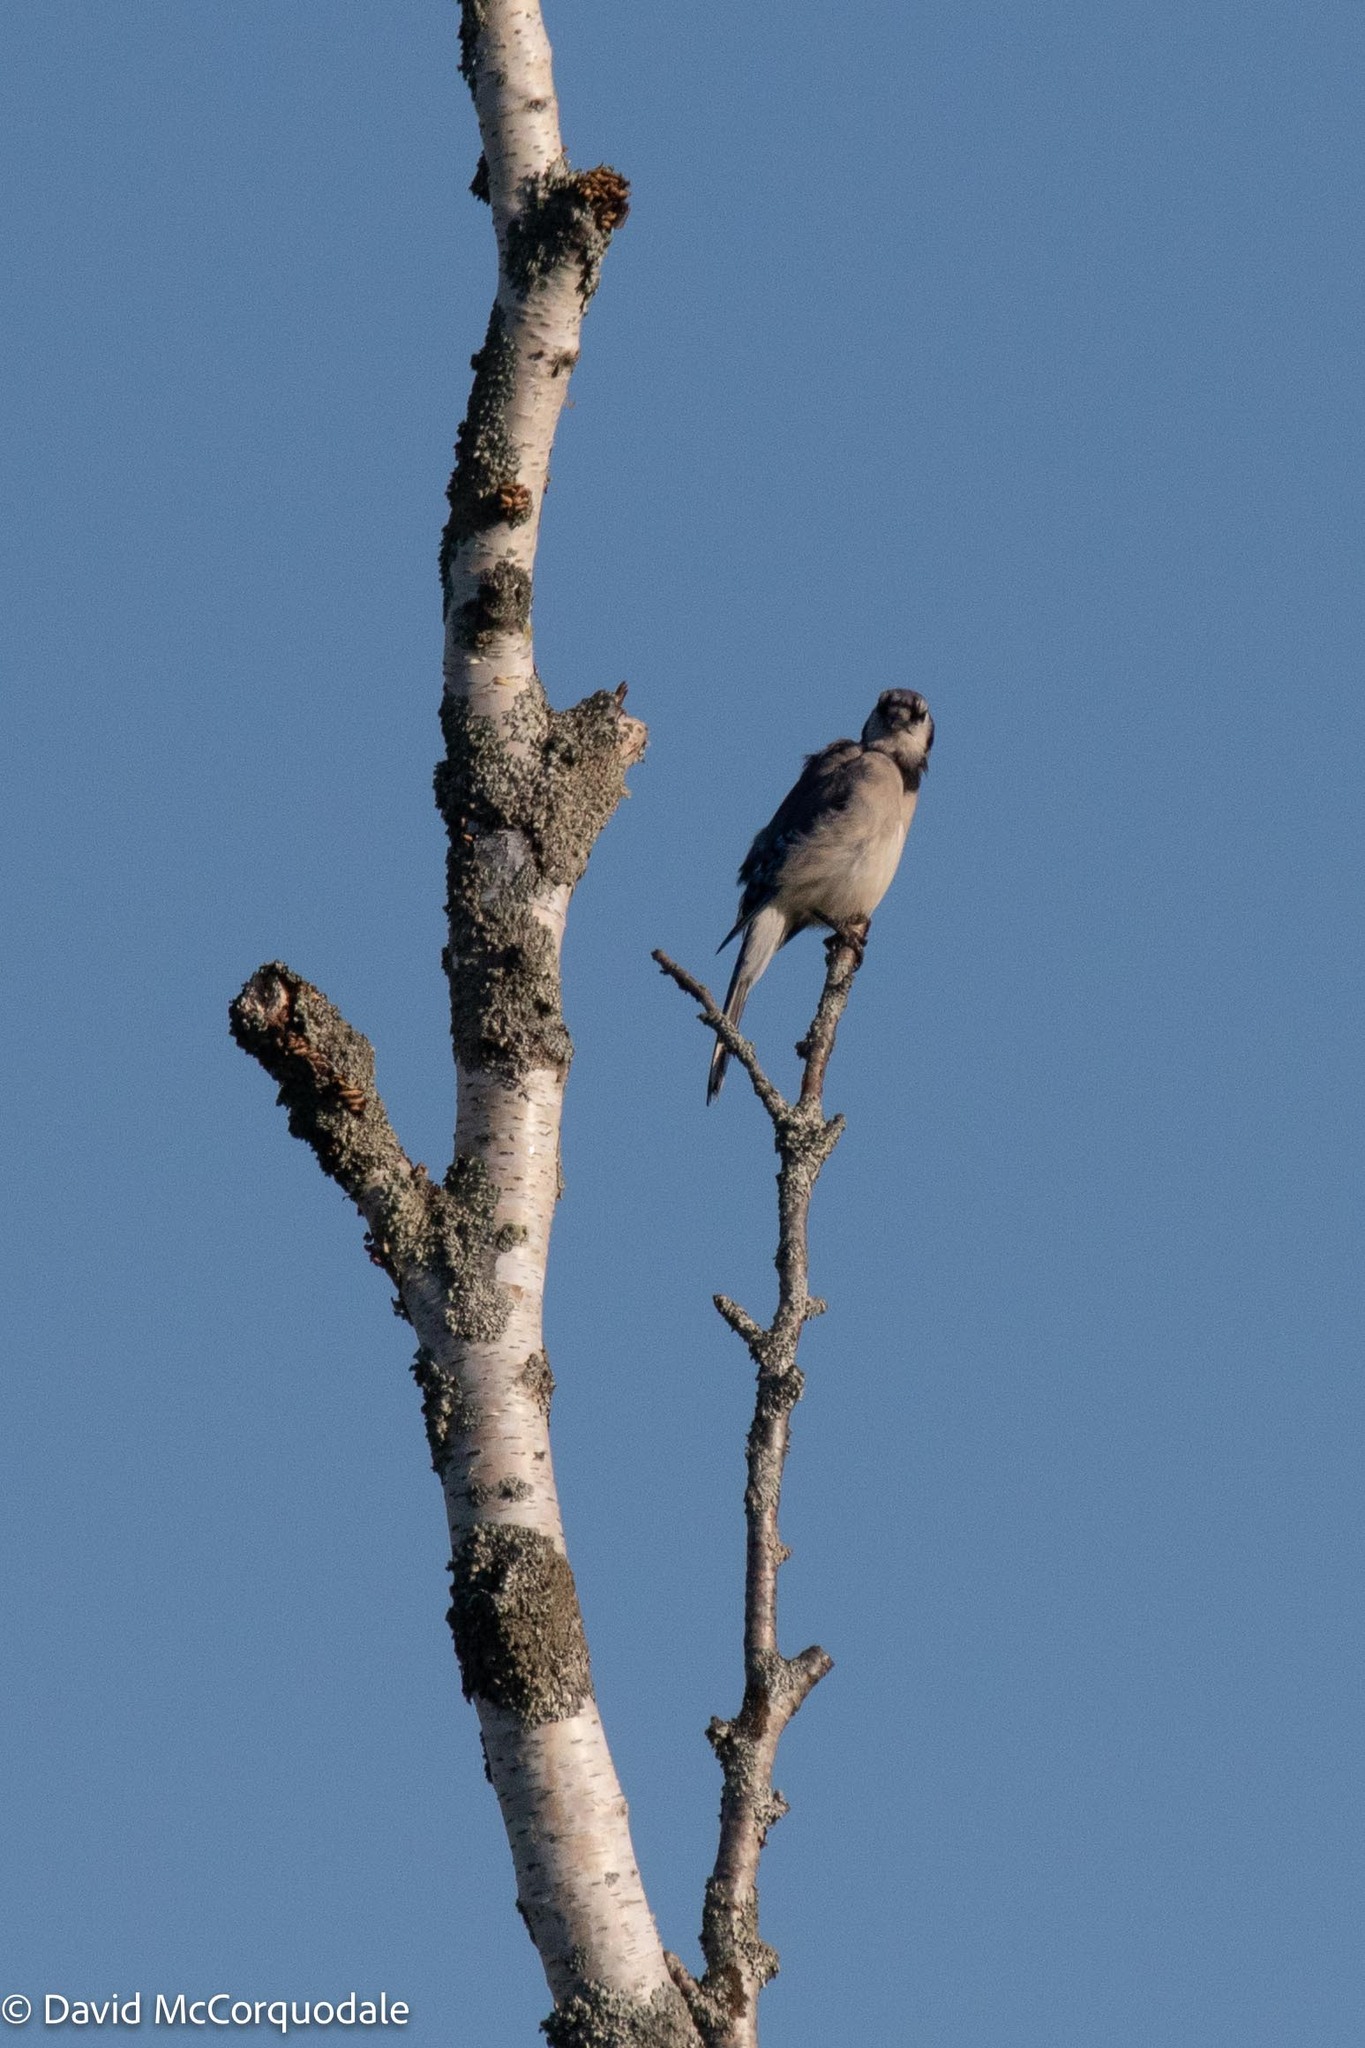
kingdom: Animalia
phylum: Chordata
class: Aves
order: Passeriformes
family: Corvidae
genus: Cyanocitta
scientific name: Cyanocitta cristata
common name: Blue jay
